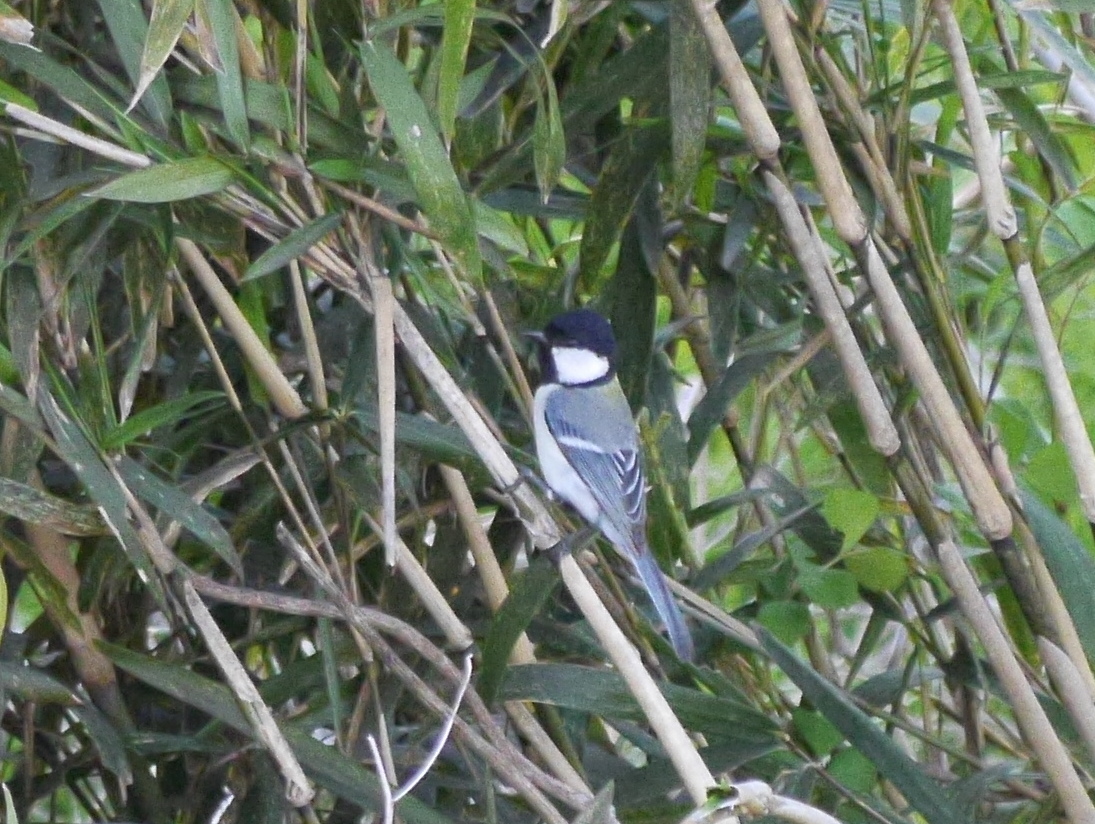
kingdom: Animalia
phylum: Chordata
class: Aves
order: Passeriformes
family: Paridae
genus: Parus
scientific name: Parus minor
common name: Japanese tit
